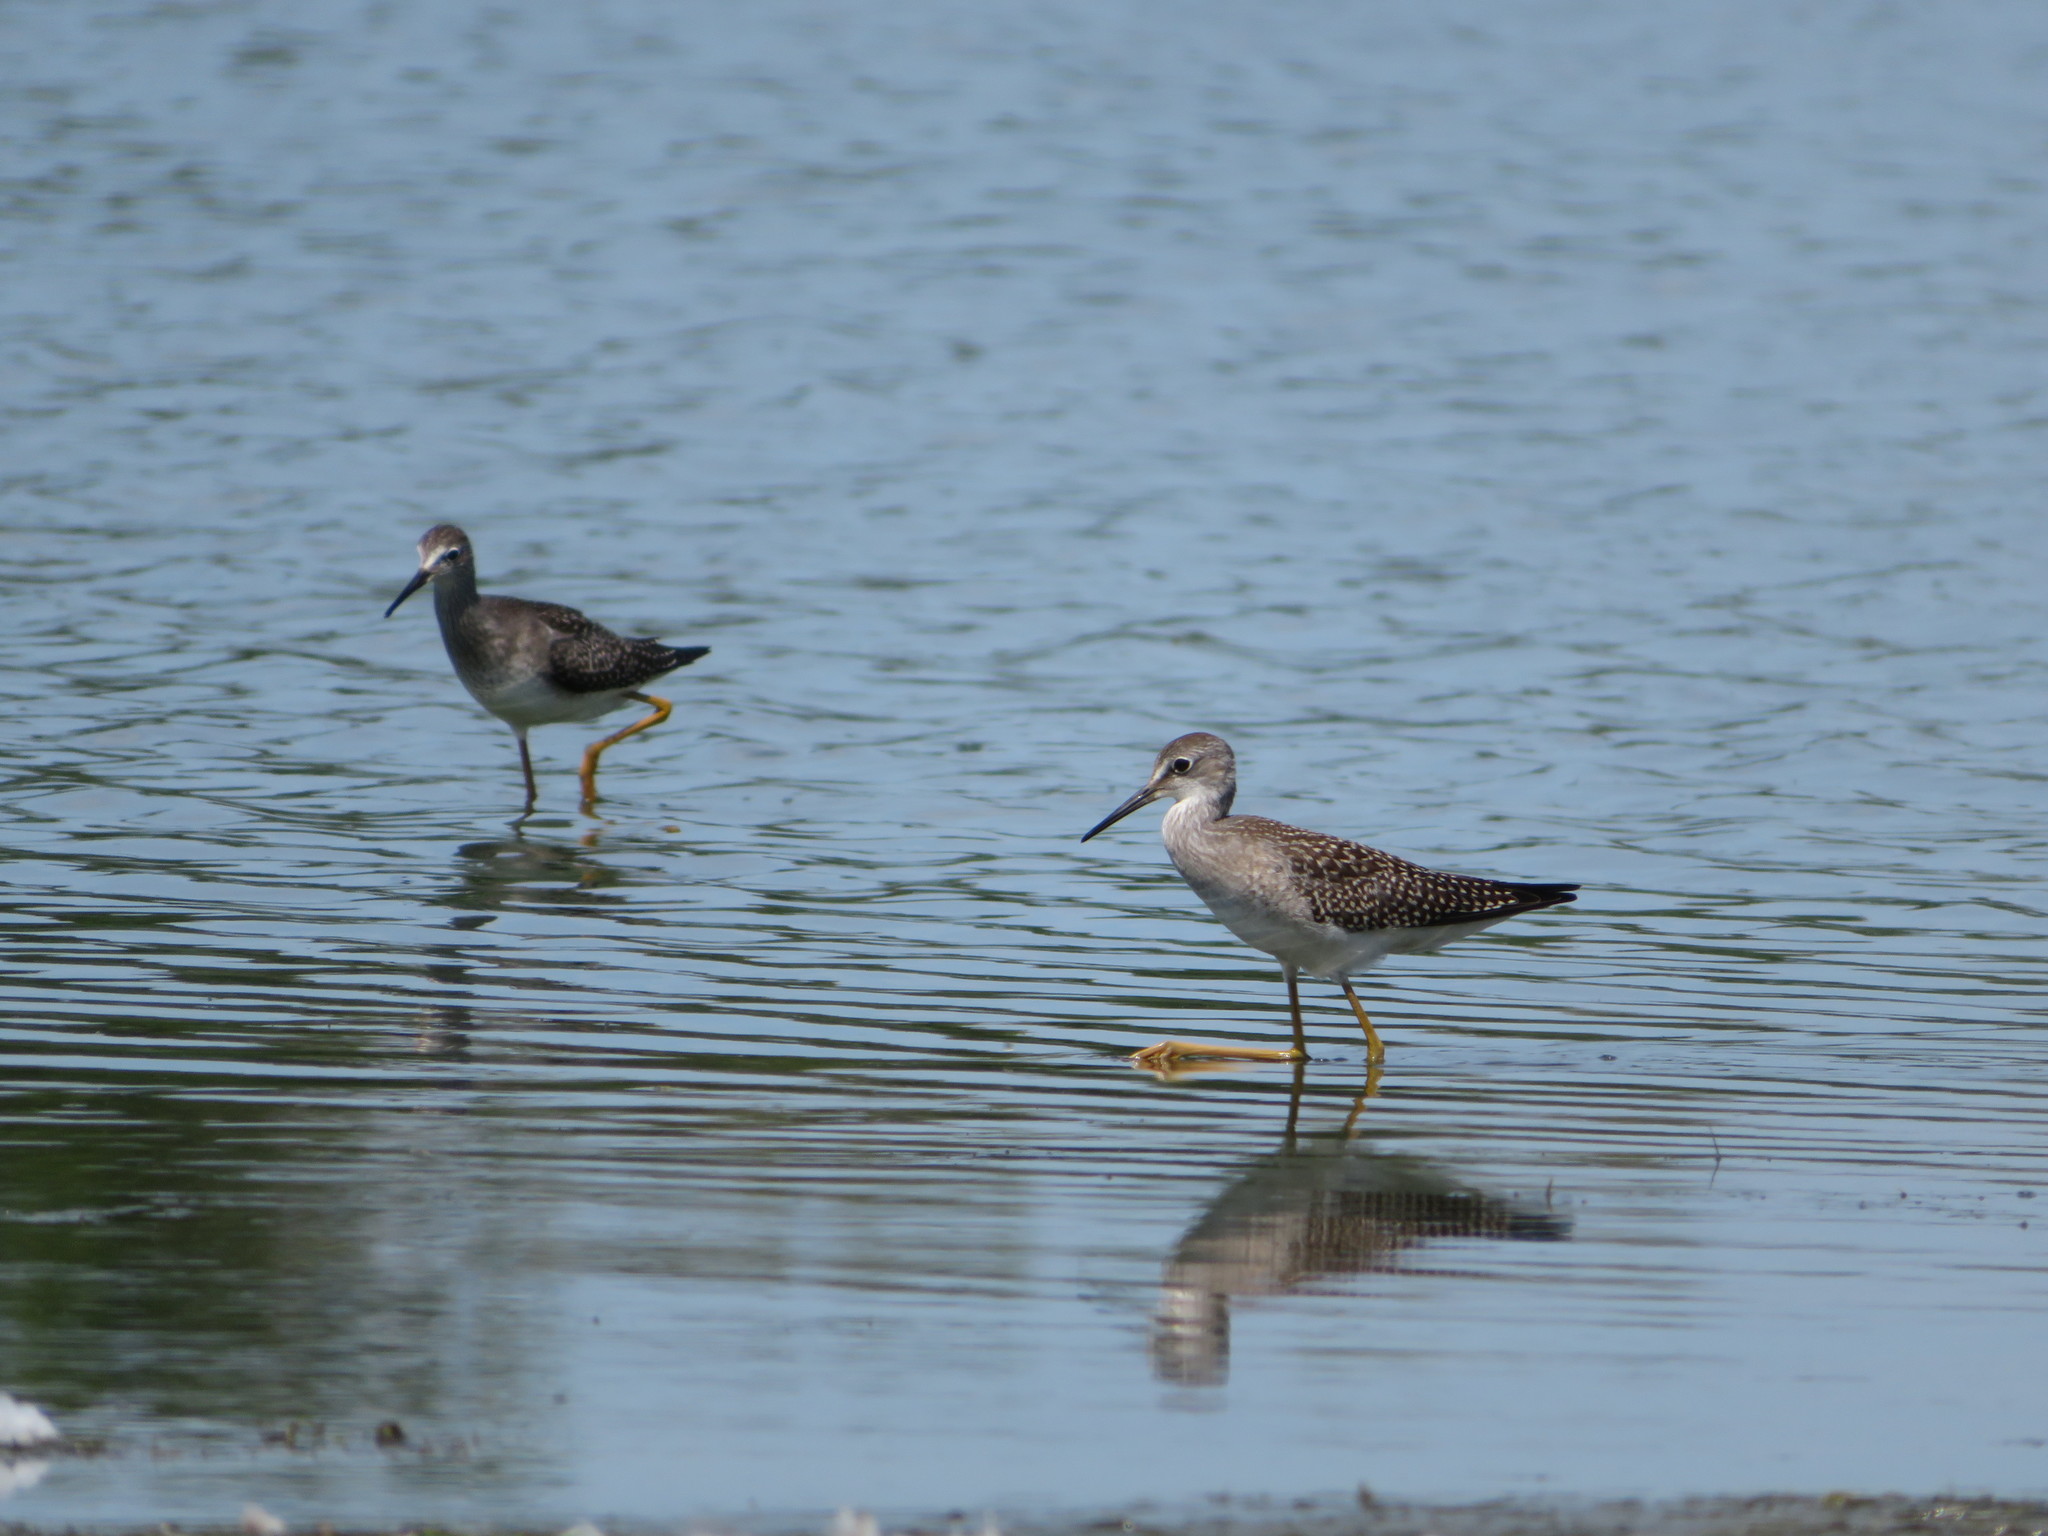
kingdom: Animalia
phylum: Chordata
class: Aves
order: Charadriiformes
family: Scolopacidae
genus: Tringa
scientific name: Tringa flavipes
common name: Lesser yellowlegs
